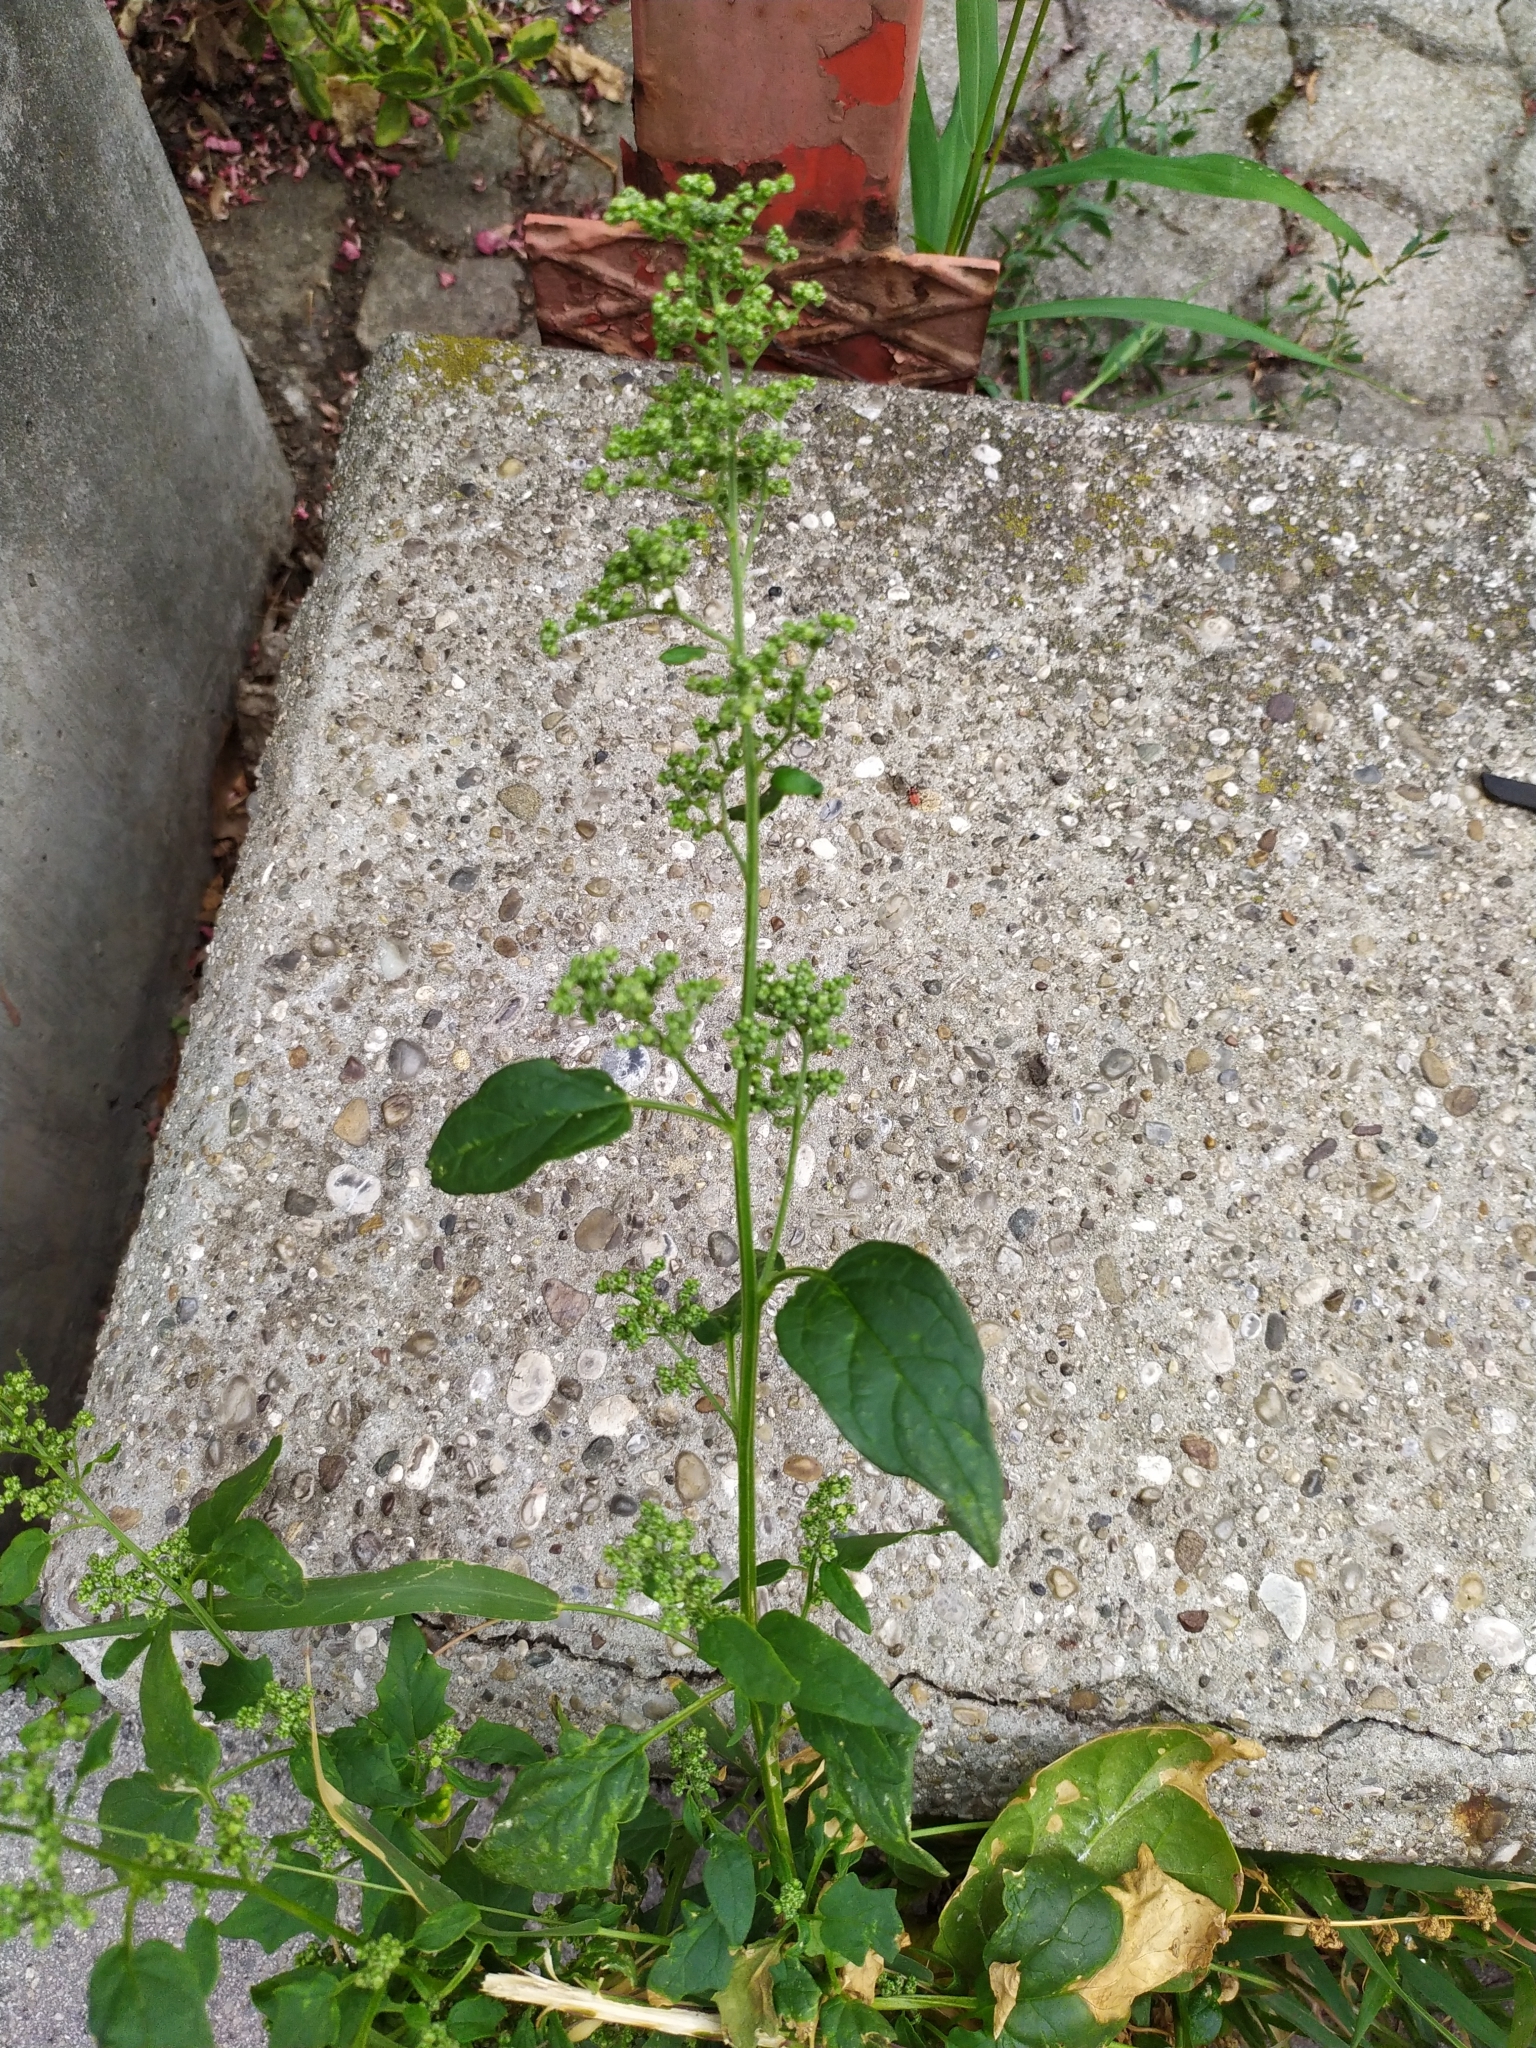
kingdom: Plantae
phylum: Tracheophyta
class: Magnoliopsida
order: Caryophyllales
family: Amaranthaceae
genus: Chenopodiastrum
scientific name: Chenopodiastrum hybridum
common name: Mapleleaf goosefoot
